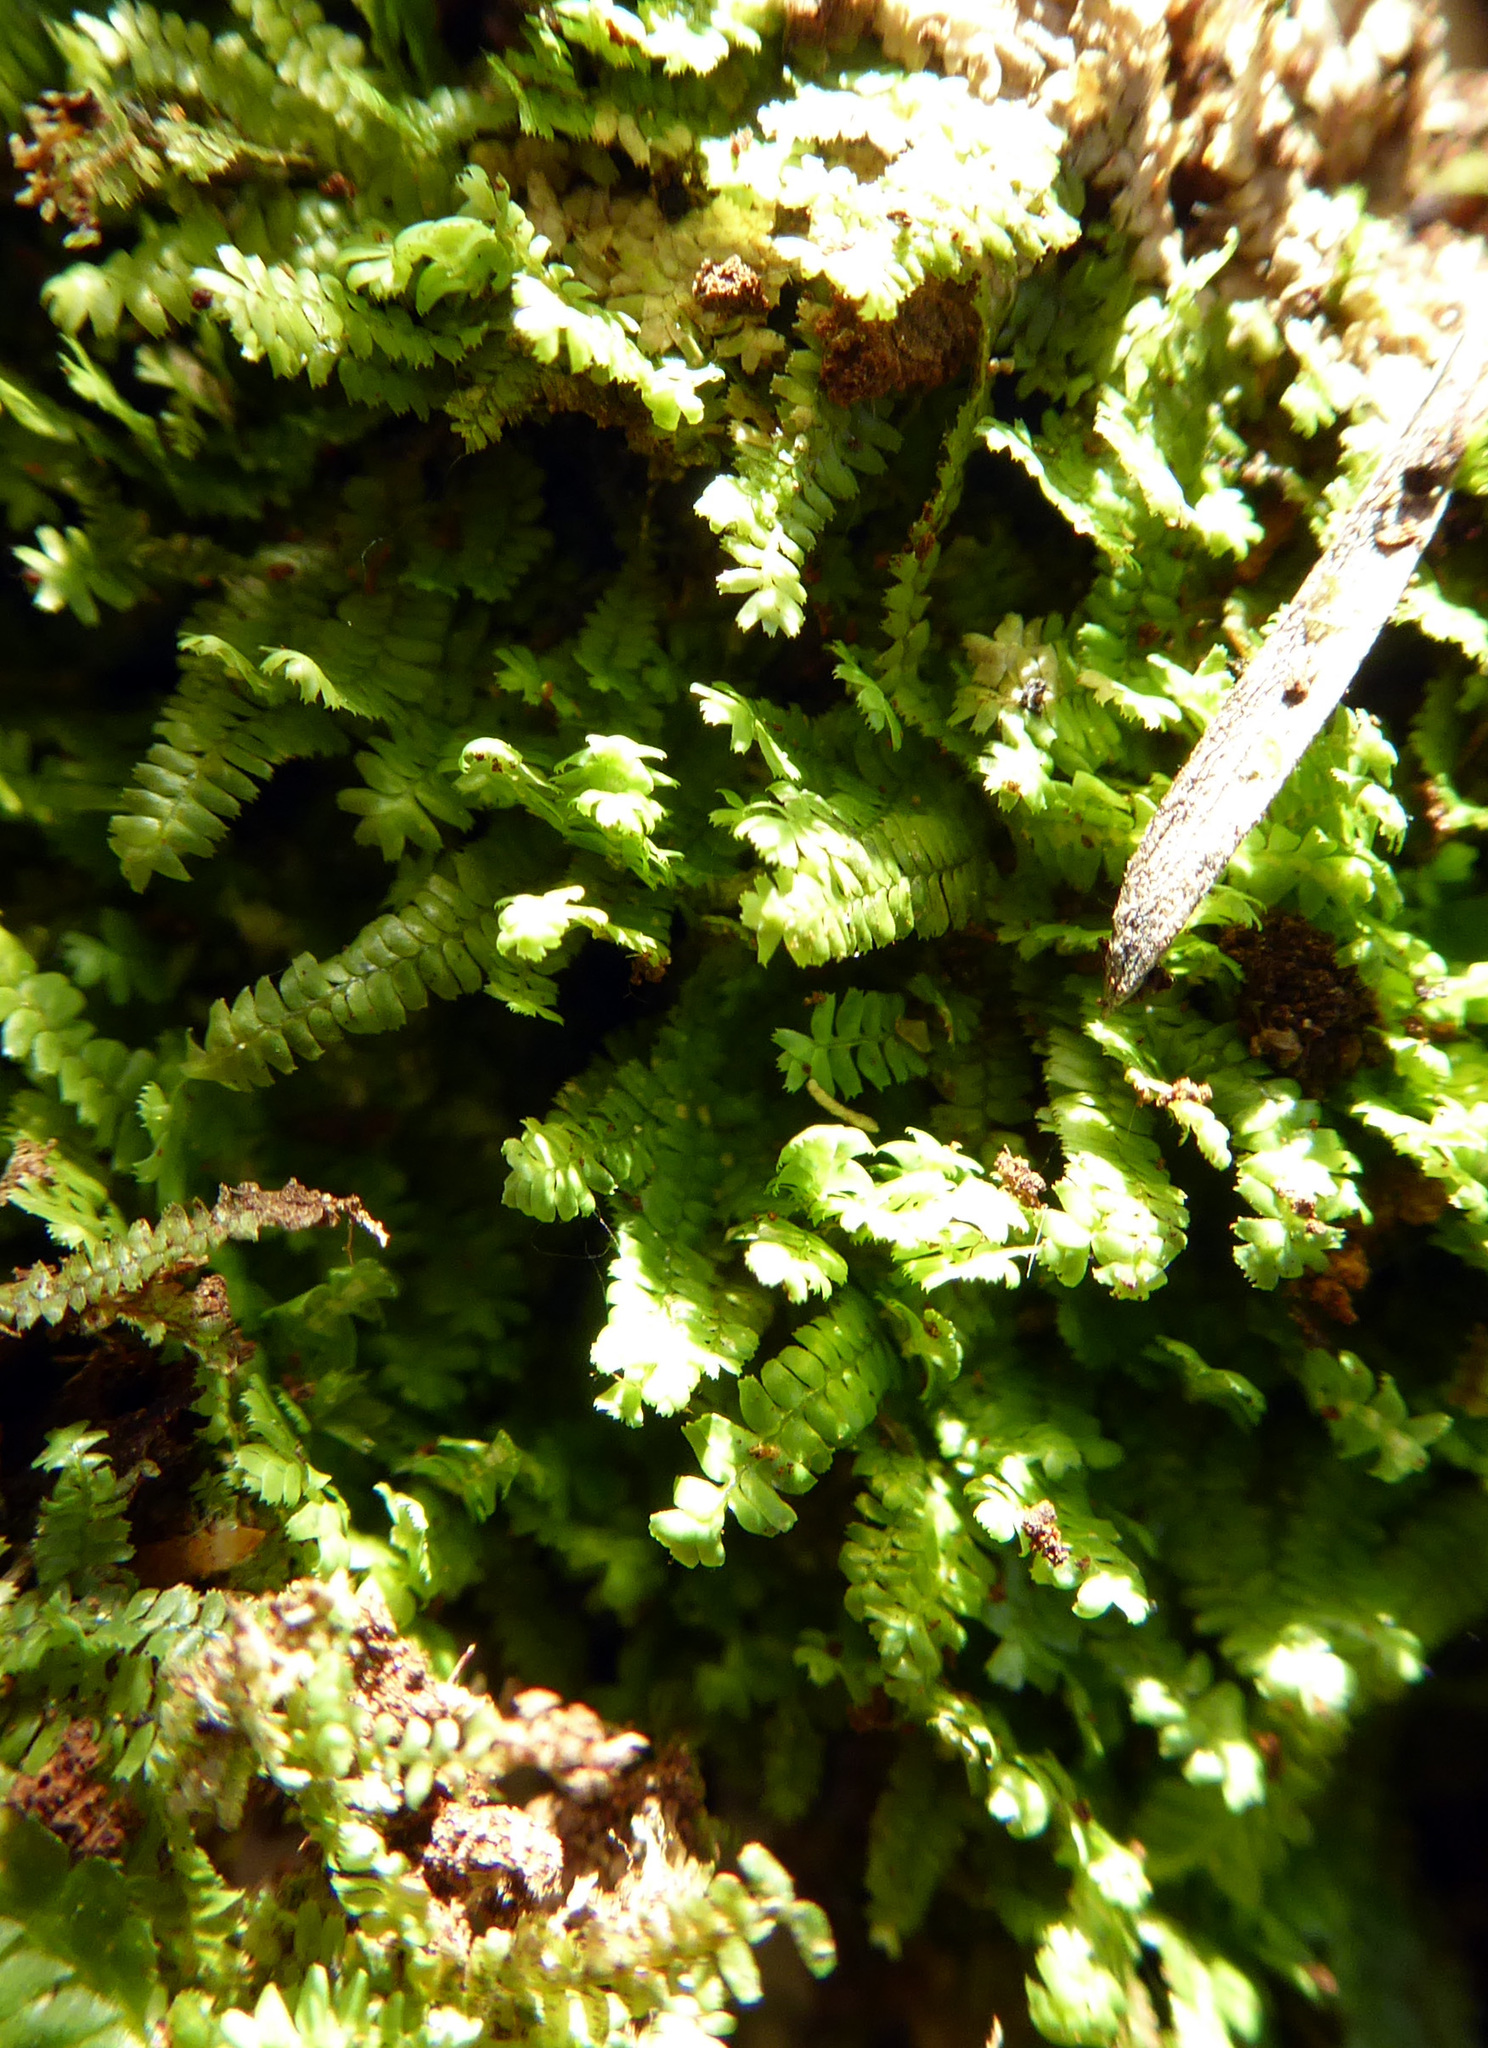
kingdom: Plantae
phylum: Marchantiophyta
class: Jungermanniopsida
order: Jungermanniales
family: Lepidoziaceae
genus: Bazzania
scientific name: Bazzania tayloriana
